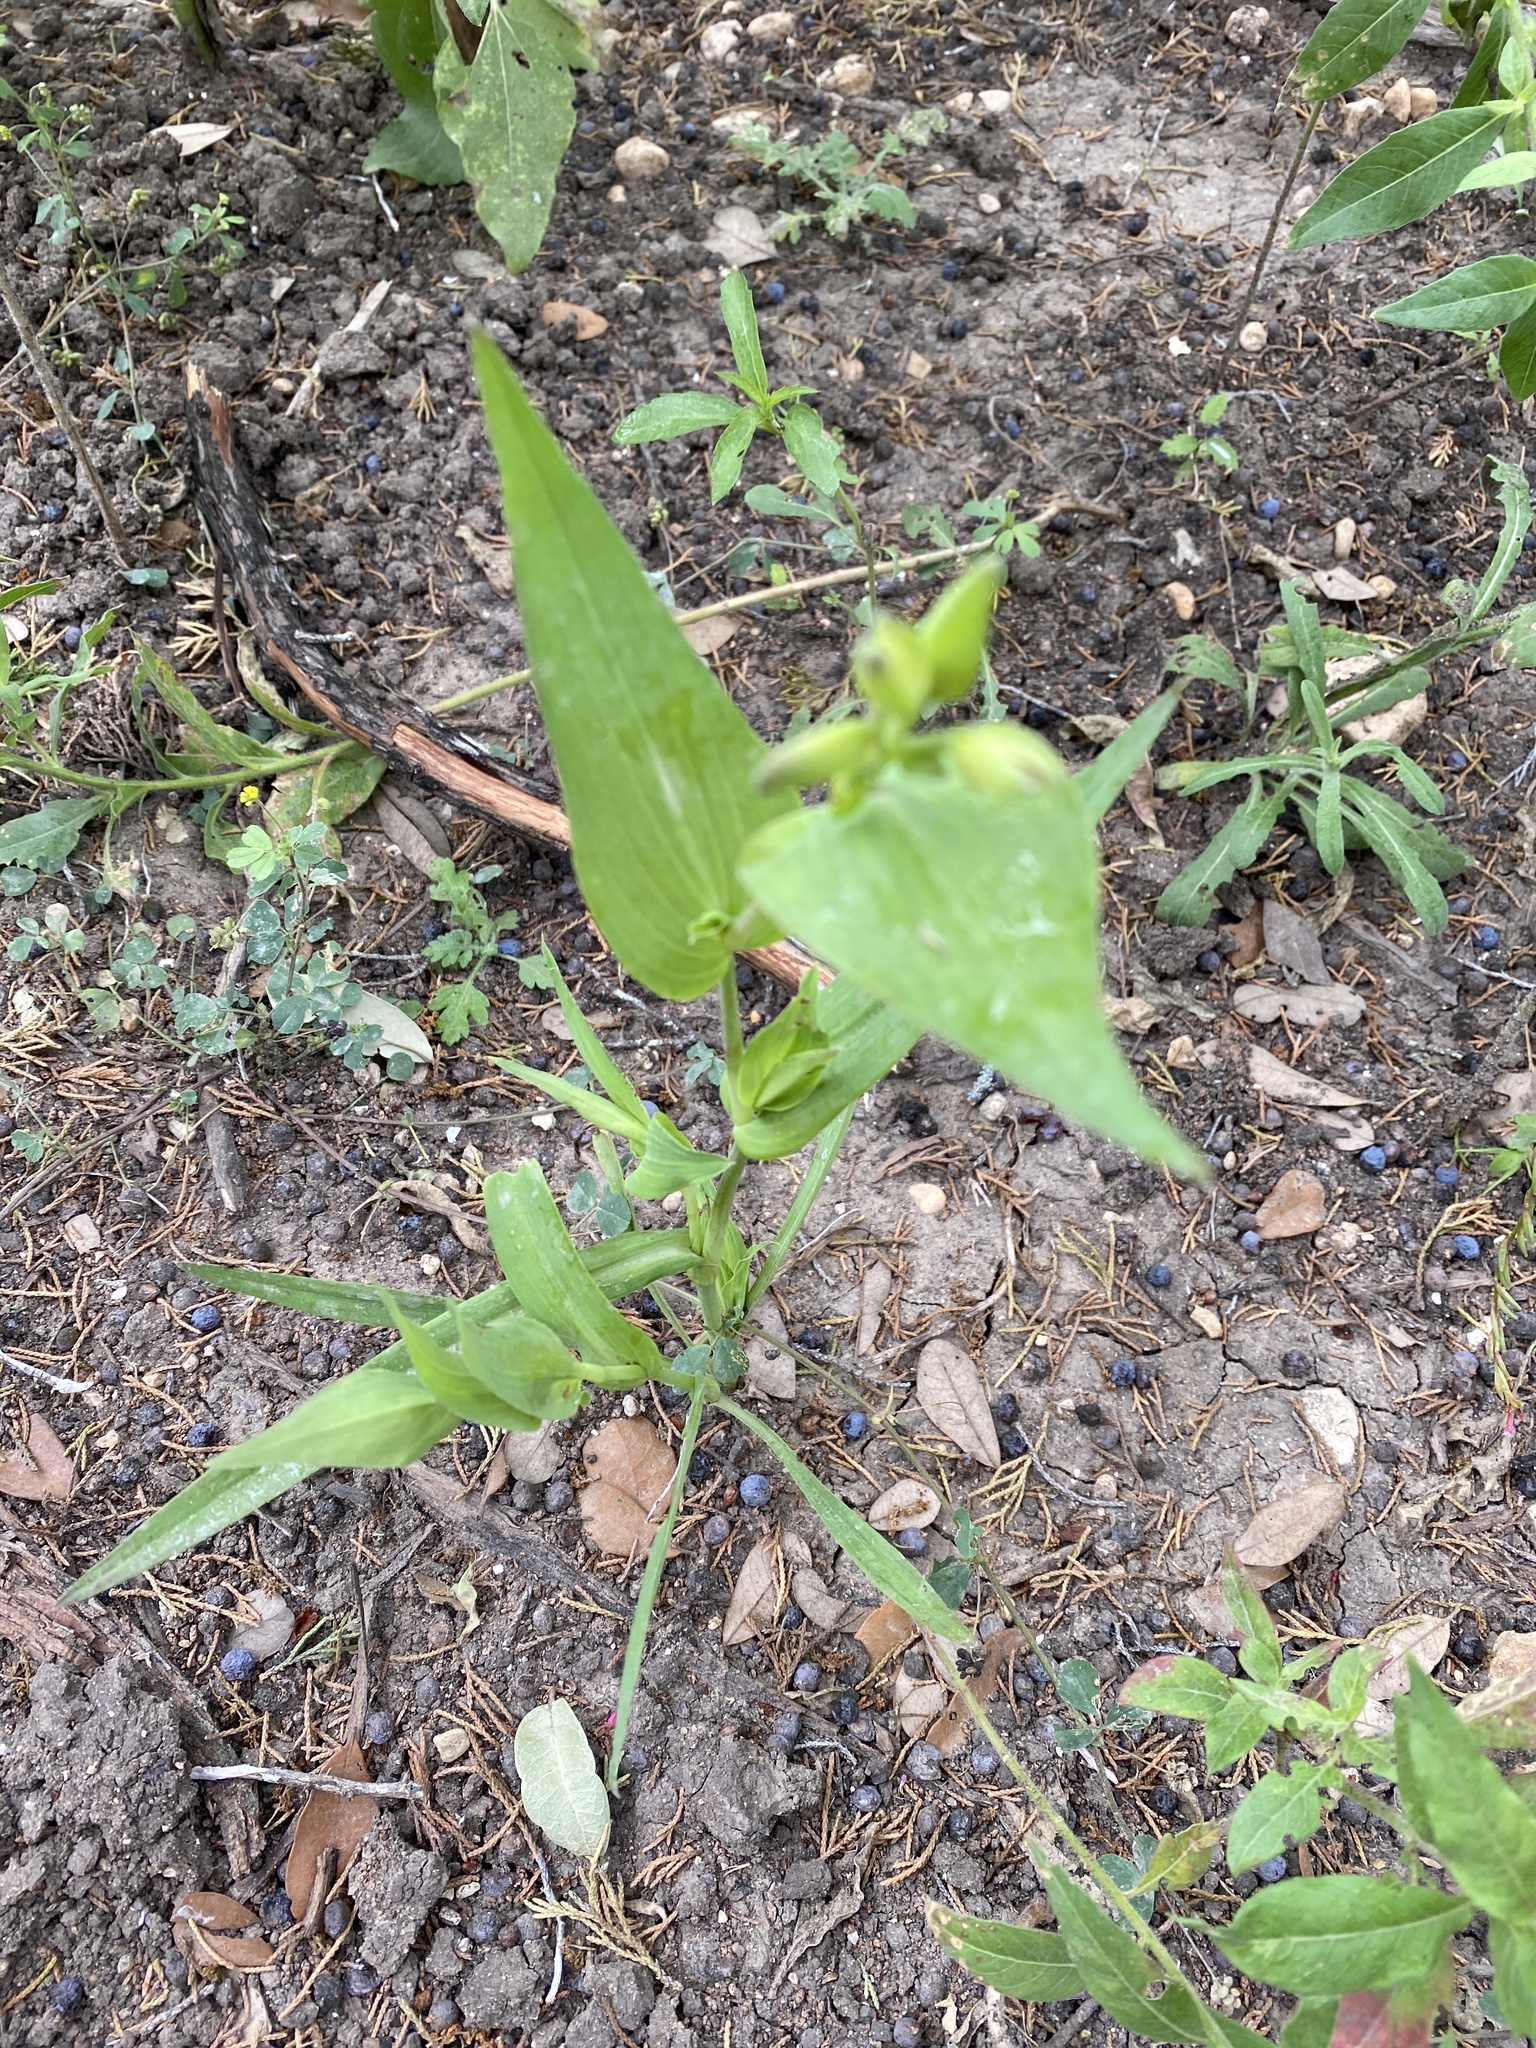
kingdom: Plantae
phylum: Tracheophyta
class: Liliopsida
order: Commelinales
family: Commelinaceae
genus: Tinantia
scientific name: Tinantia anomala
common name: False dayflower
